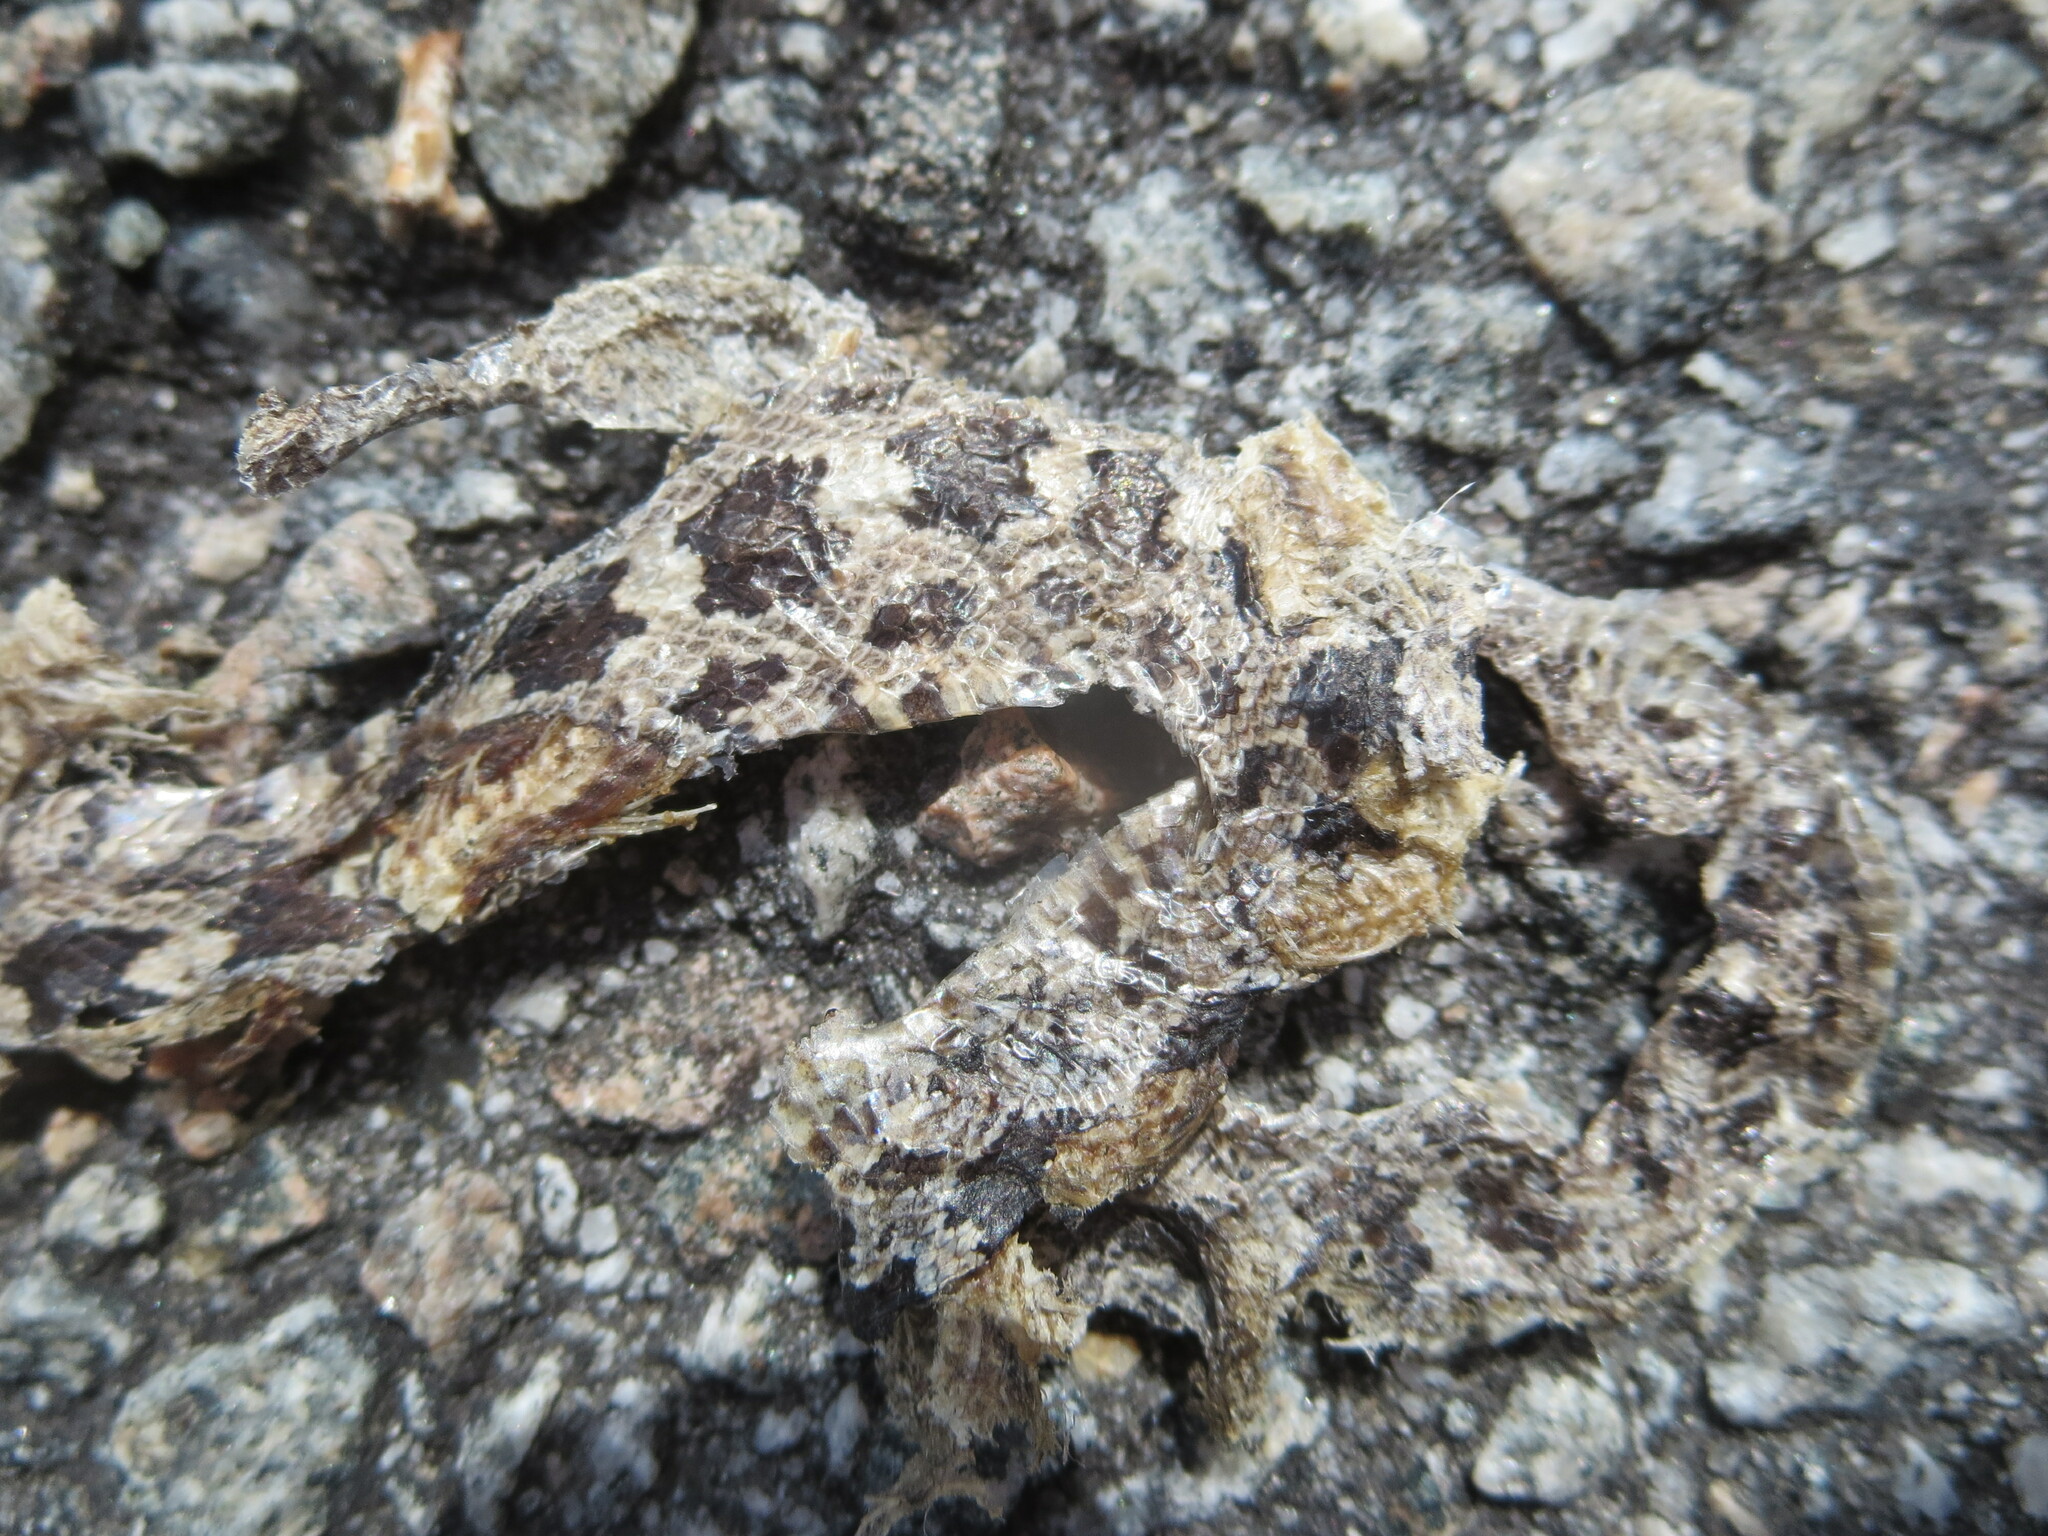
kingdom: Animalia
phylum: Chordata
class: Squamata
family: Colubridae
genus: Pantherophis
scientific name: Pantherophis alleghaniensis
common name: Eastern rat snake
